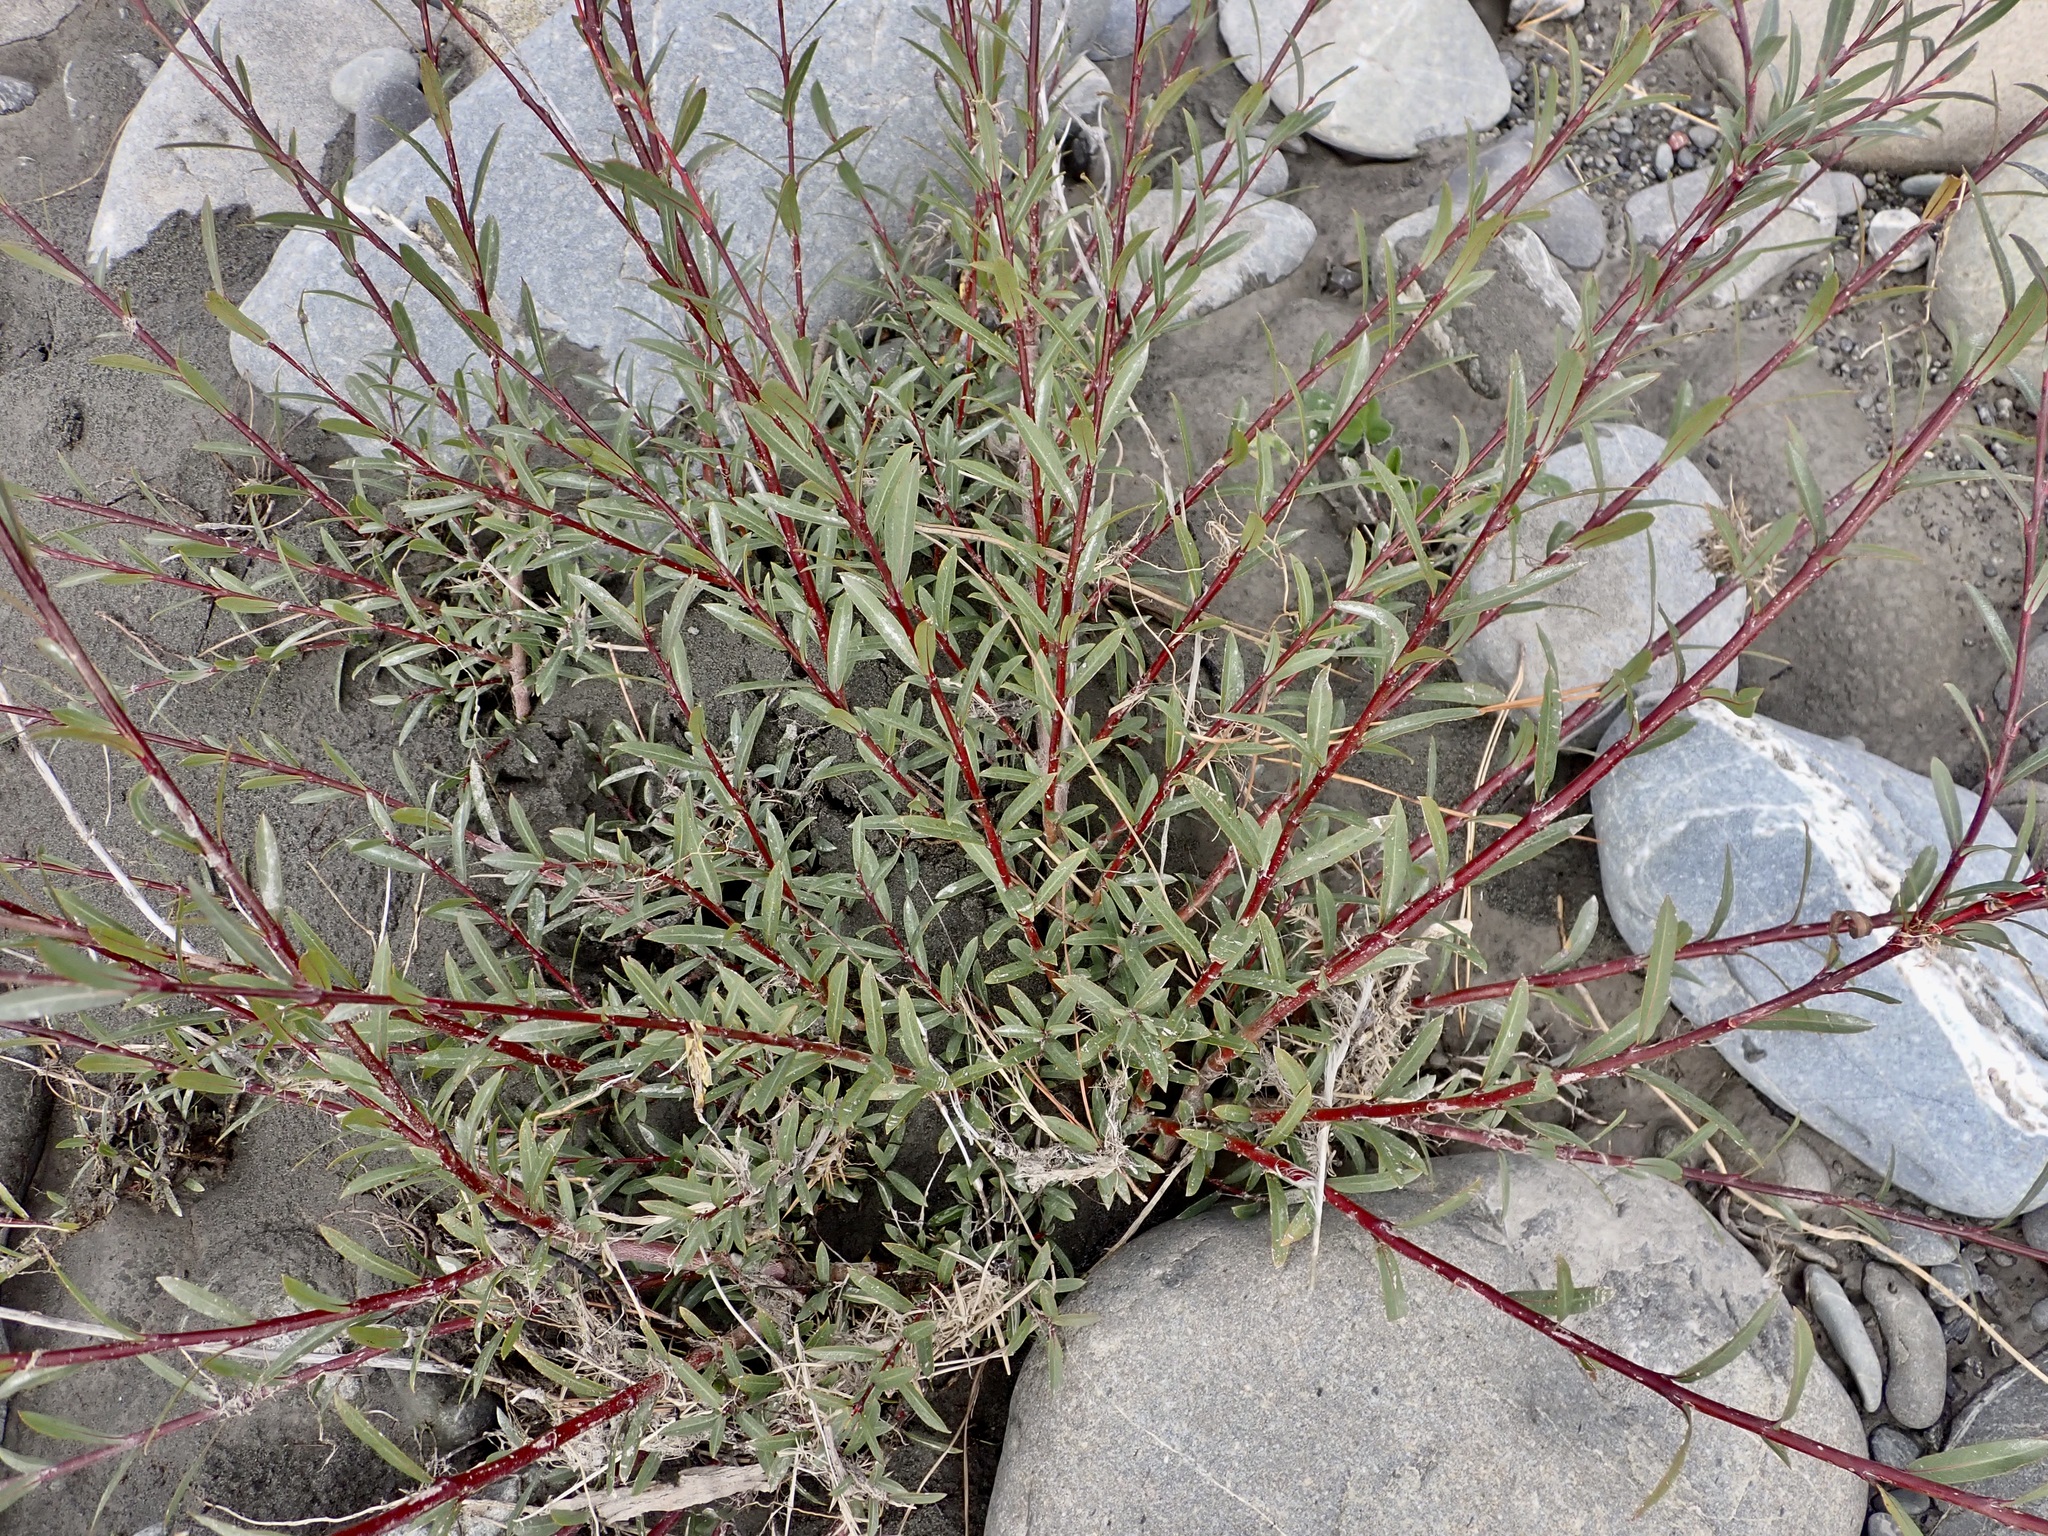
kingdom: Plantae
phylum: Tracheophyta
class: Magnoliopsida
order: Malpighiales
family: Salicaceae
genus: Salix
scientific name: Salix purpurea
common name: Purple willow
